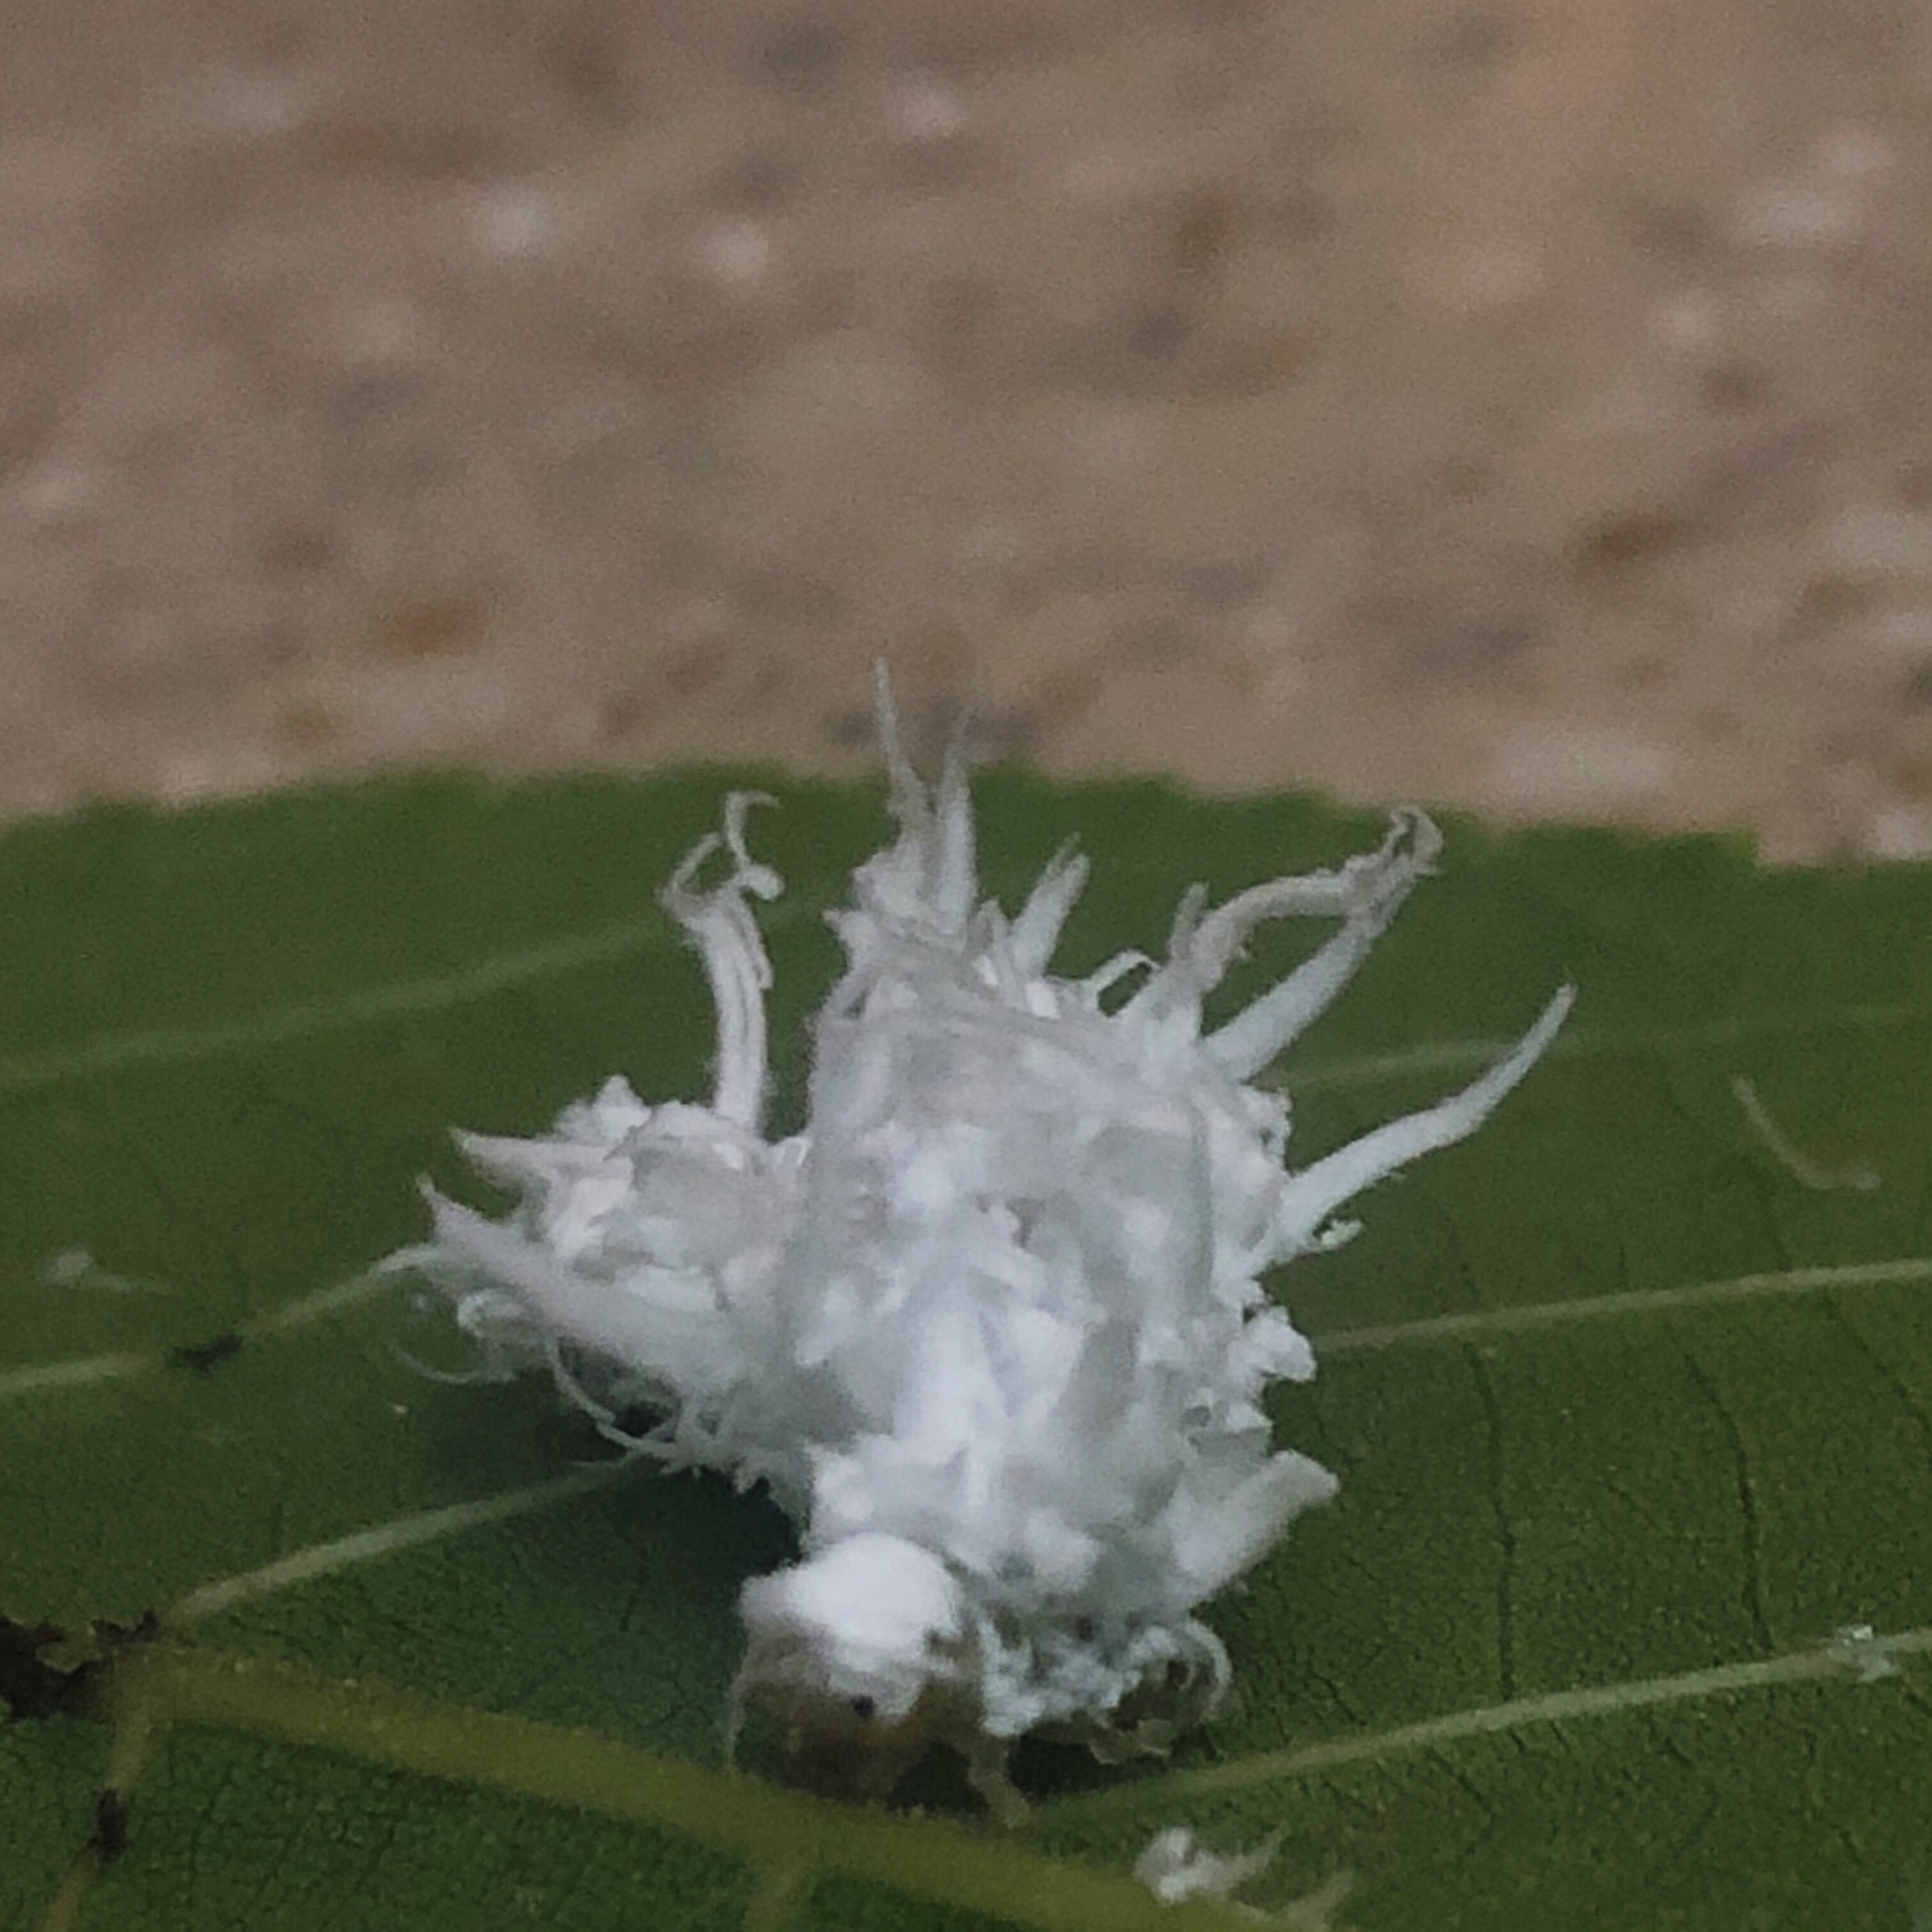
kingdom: Animalia
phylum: Arthropoda
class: Insecta
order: Hymenoptera
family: Tenthredinidae
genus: Eriocampa
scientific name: Eriocampa juglandis
